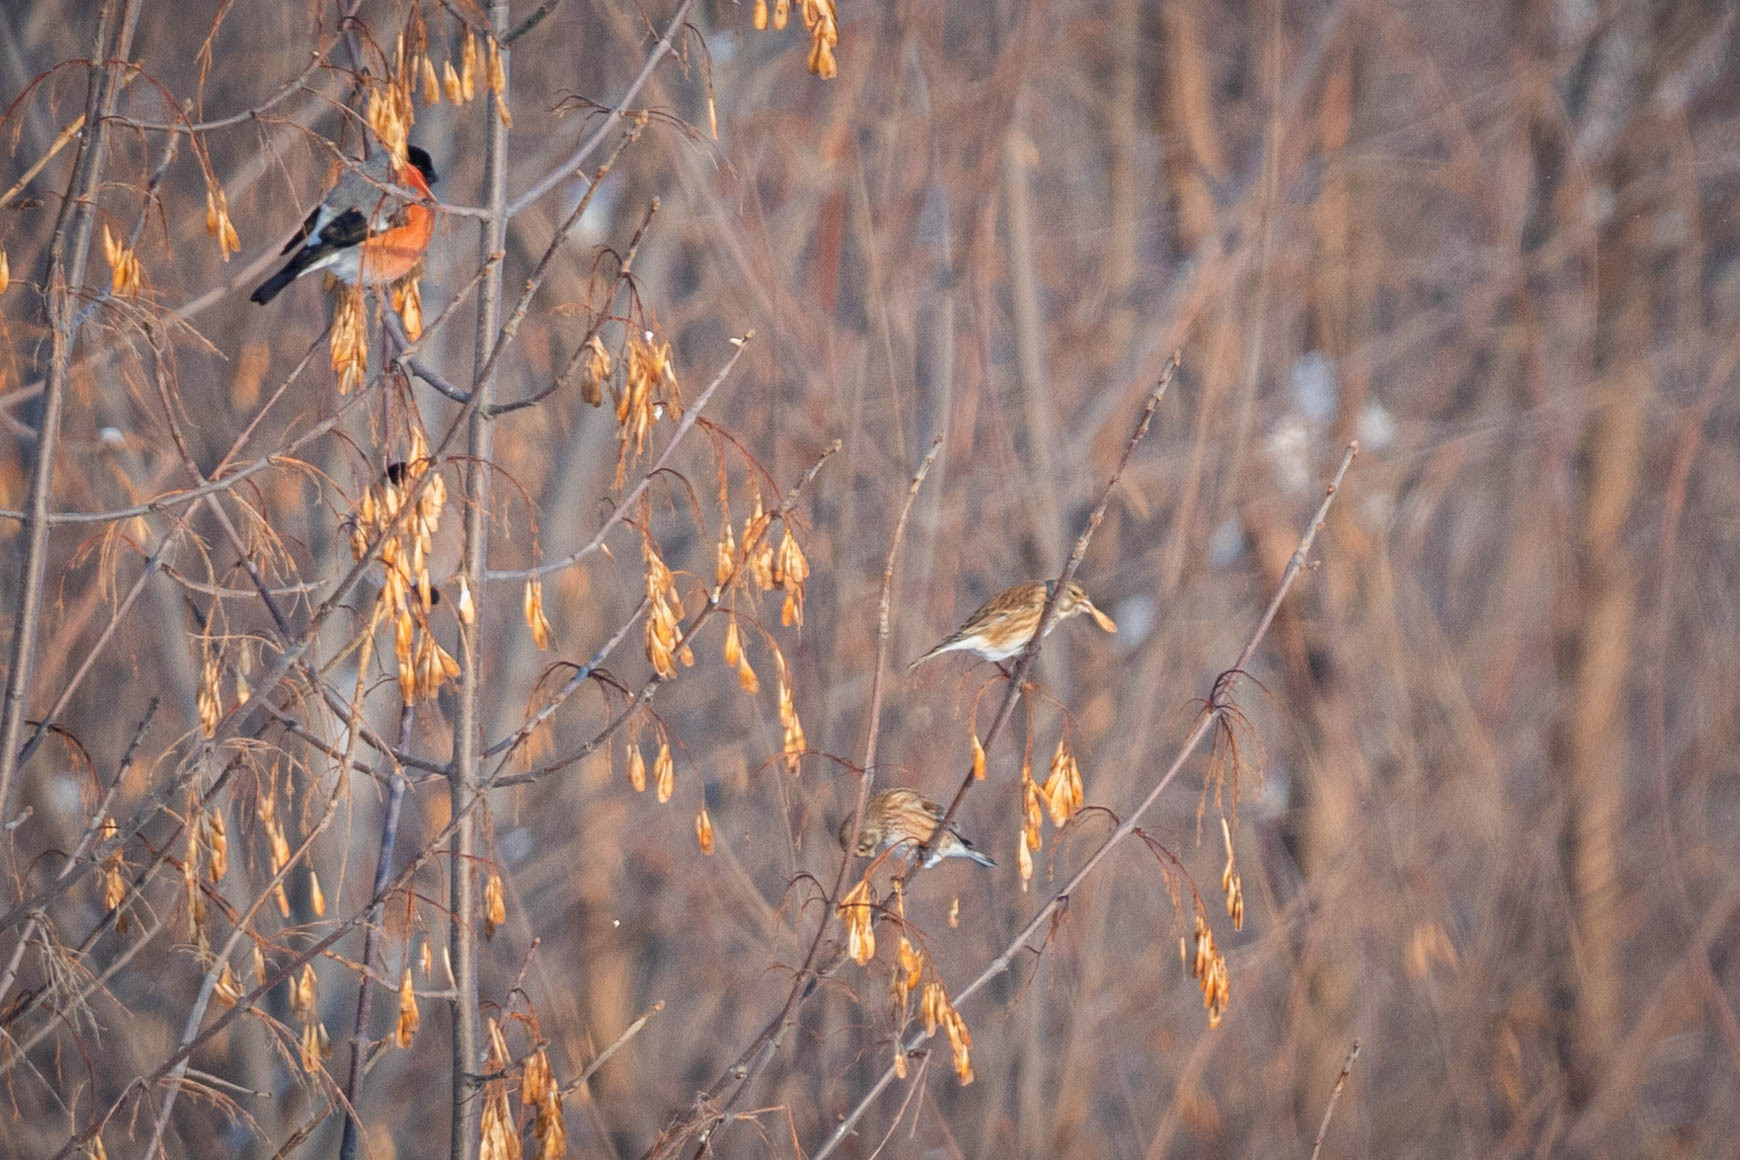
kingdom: Animalia
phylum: Chordata
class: Aves
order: Passeriformes
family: Fringillidae
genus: Pyrrhula
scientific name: Pyrrhula pyrrhula
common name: Eurasian bullfinch
